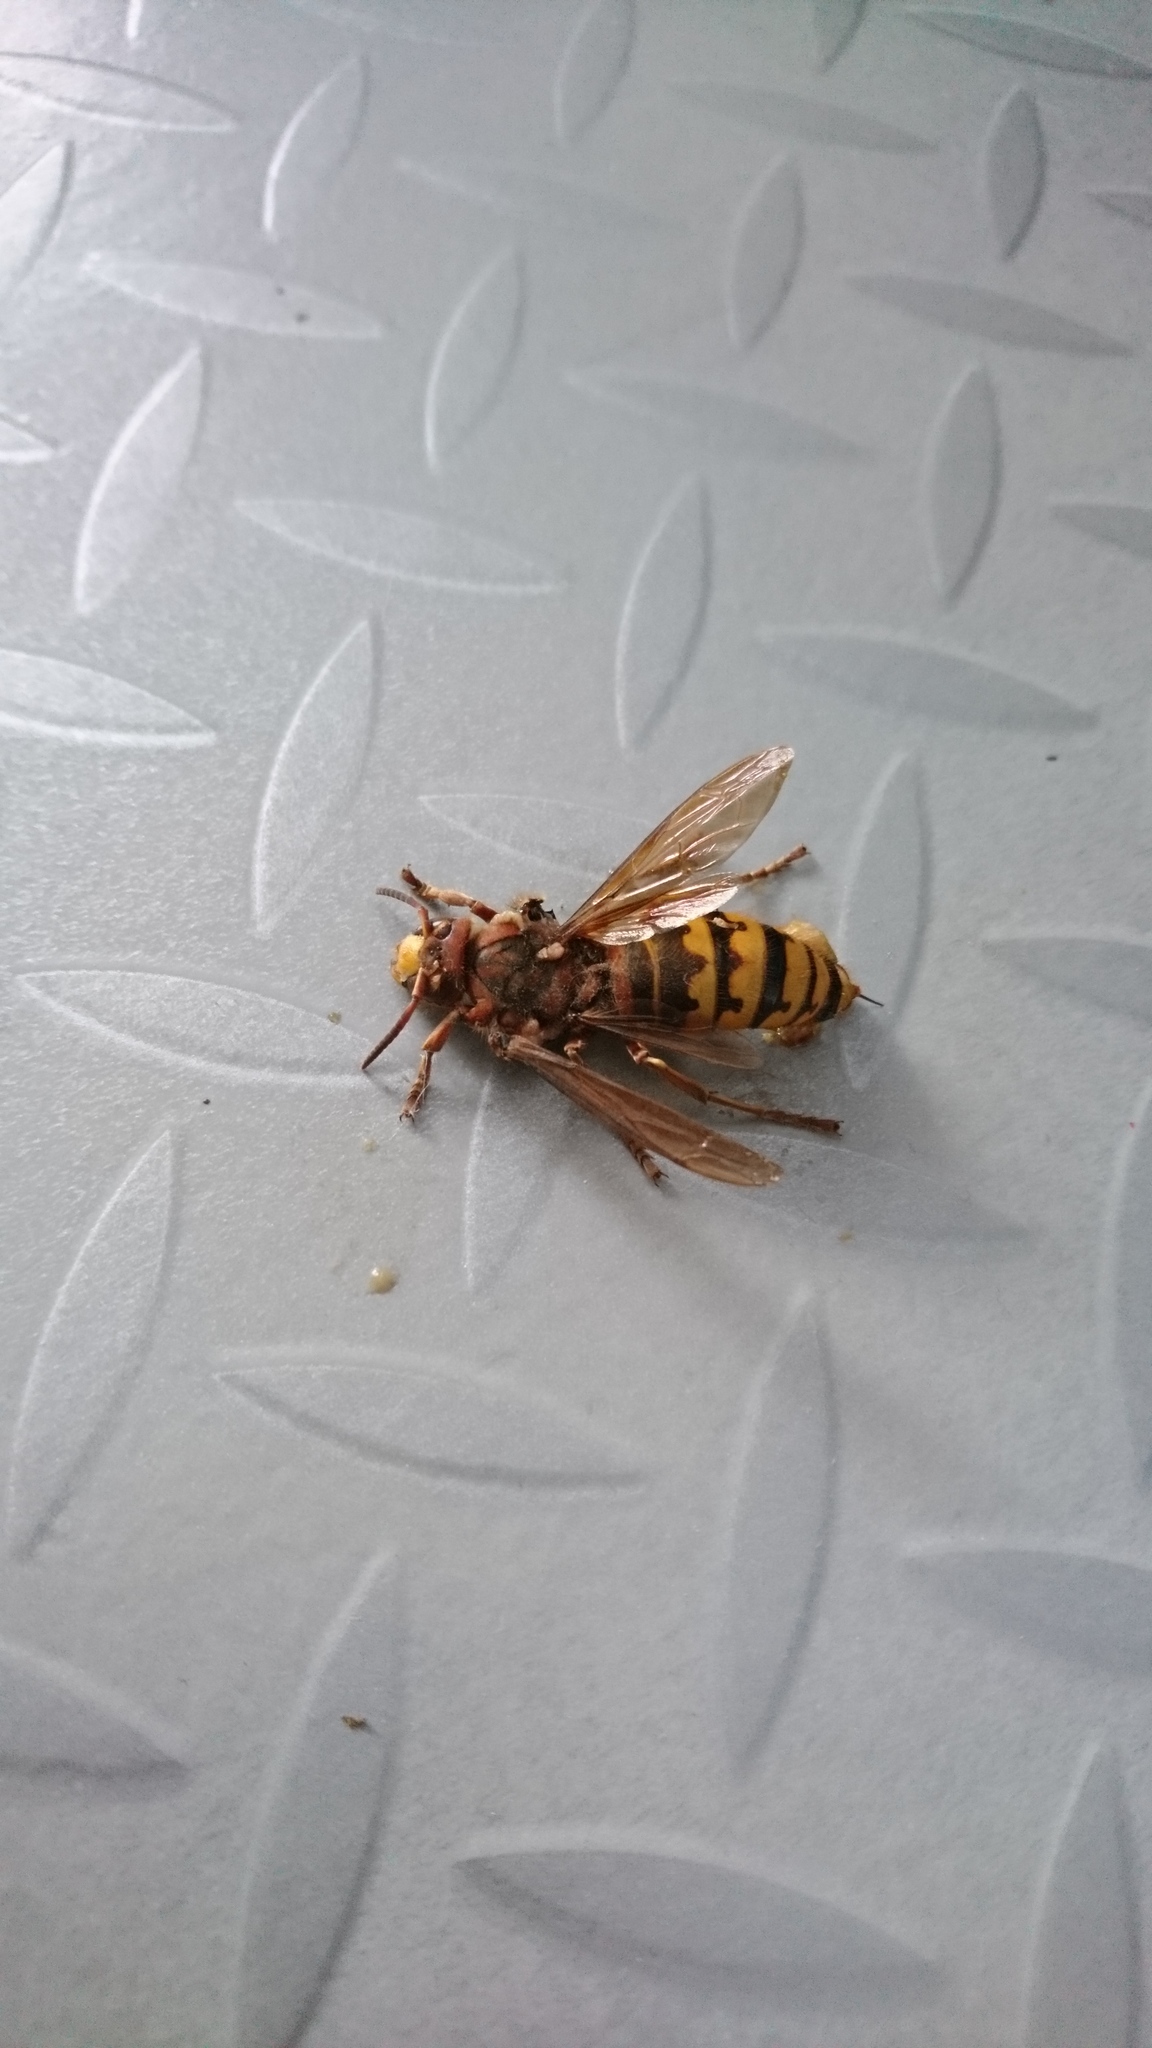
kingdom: Animalia
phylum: Arthropoda
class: Insecta
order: Hymenoptera
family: Vespidae
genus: Vespa
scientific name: Vespa crabro
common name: Hornet
